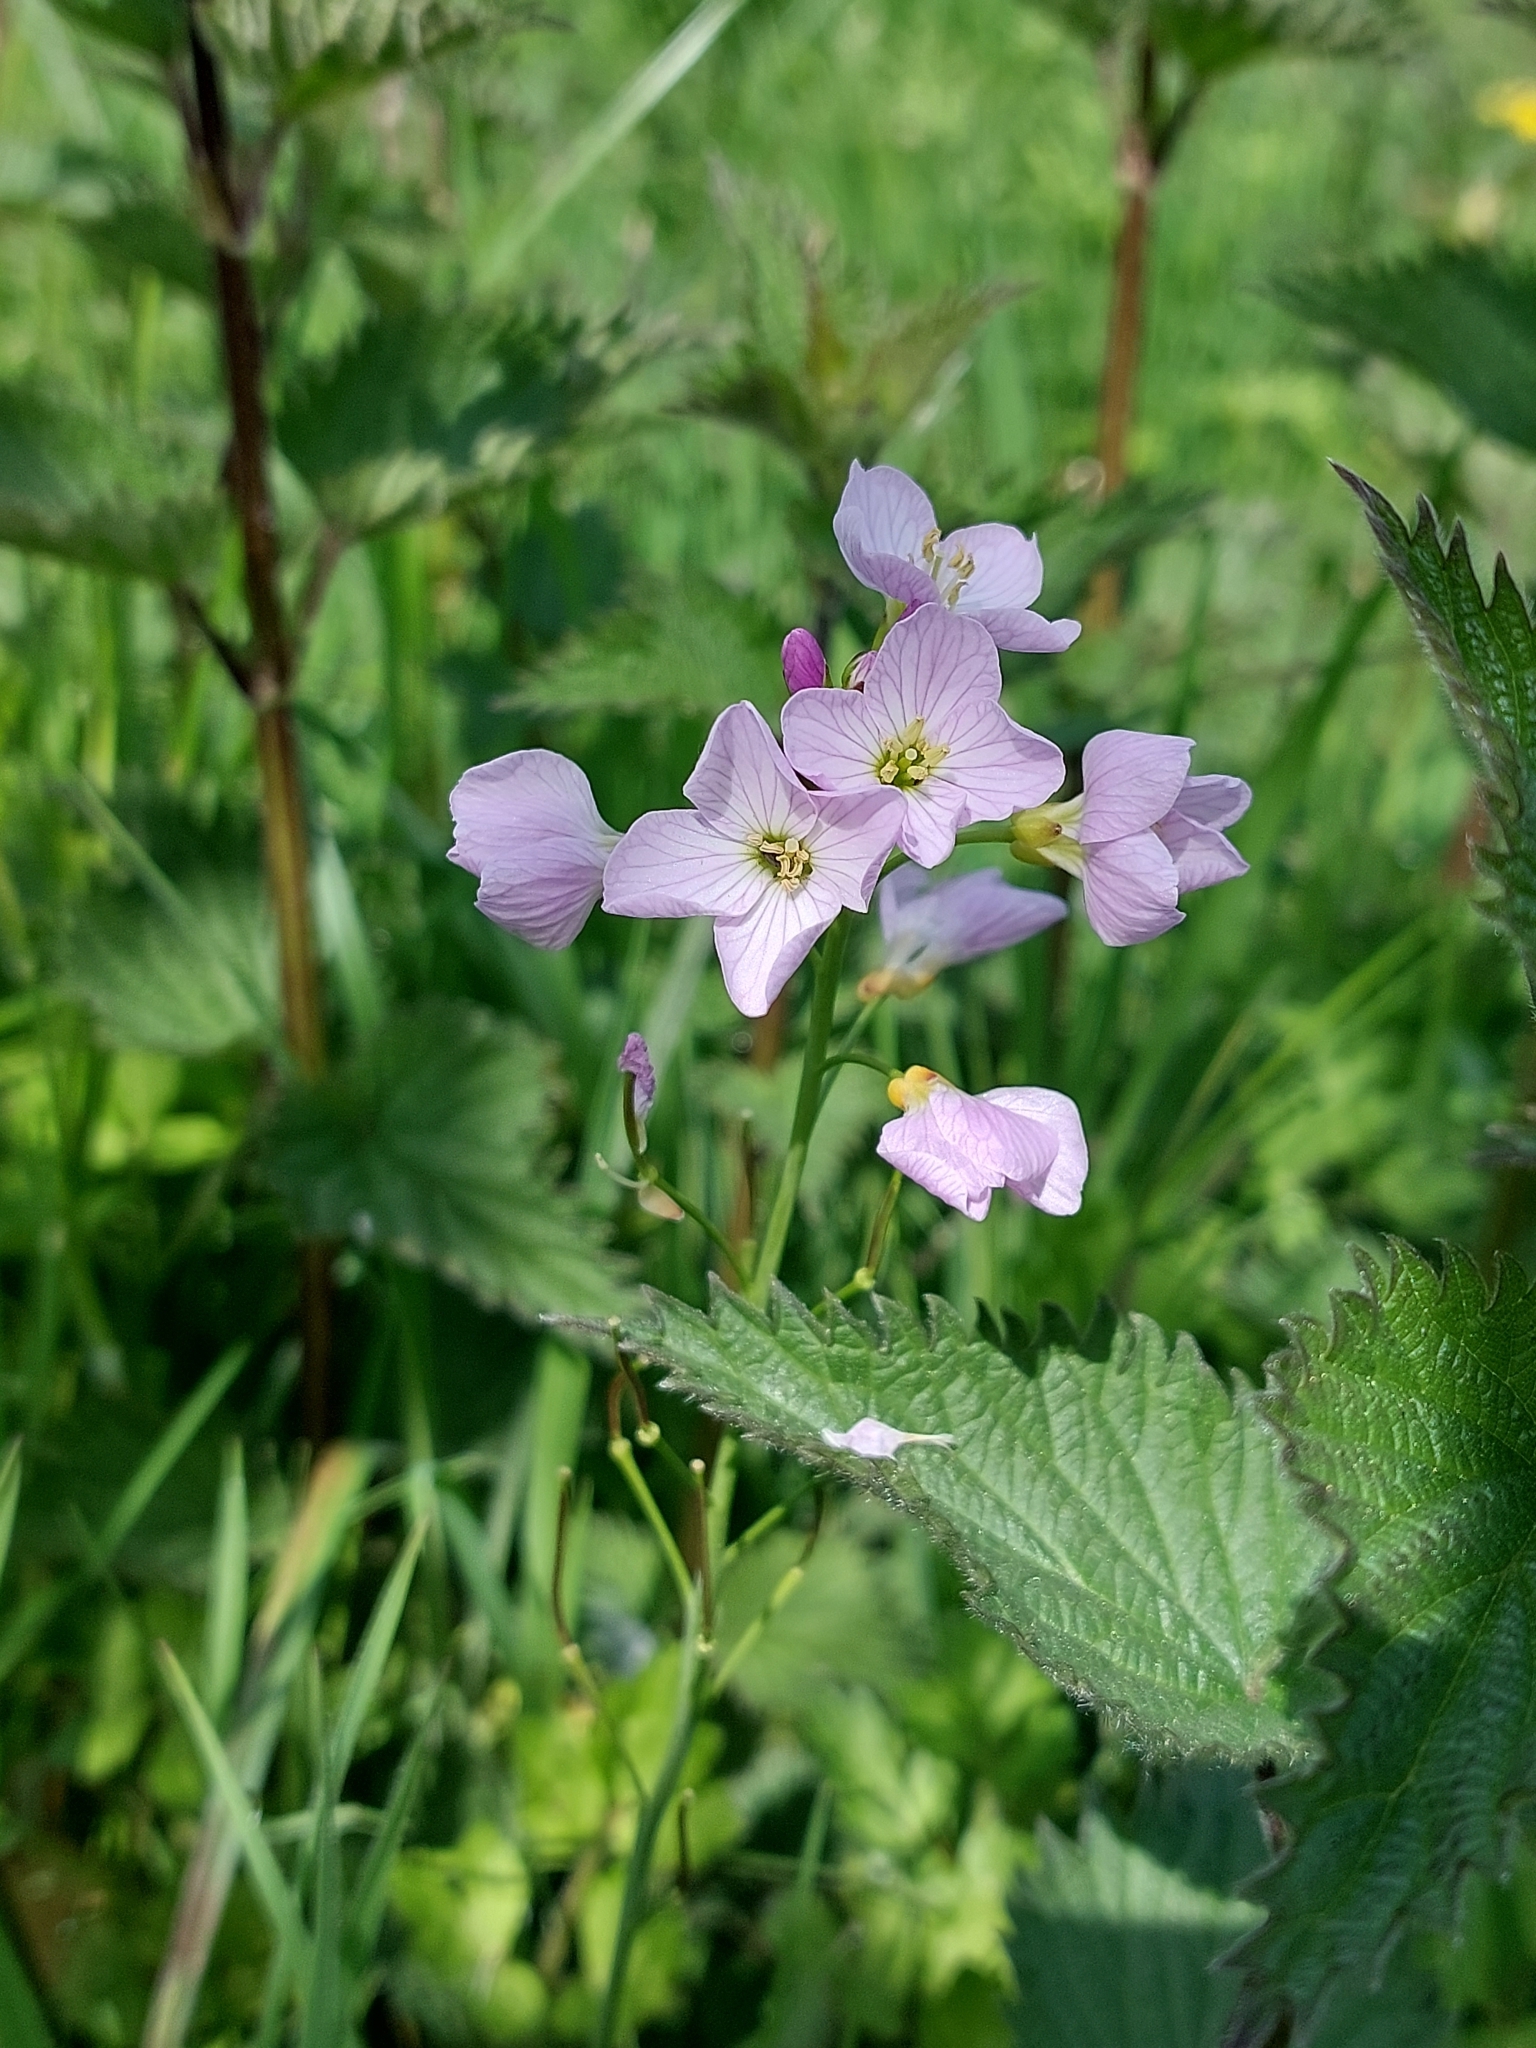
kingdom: Plantae
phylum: Tracheophyta
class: Magnoliopsida
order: Brassicales
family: Brassicaceae
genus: Cardamine
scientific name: Cardamine pratensis
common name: Cuckoo flower
